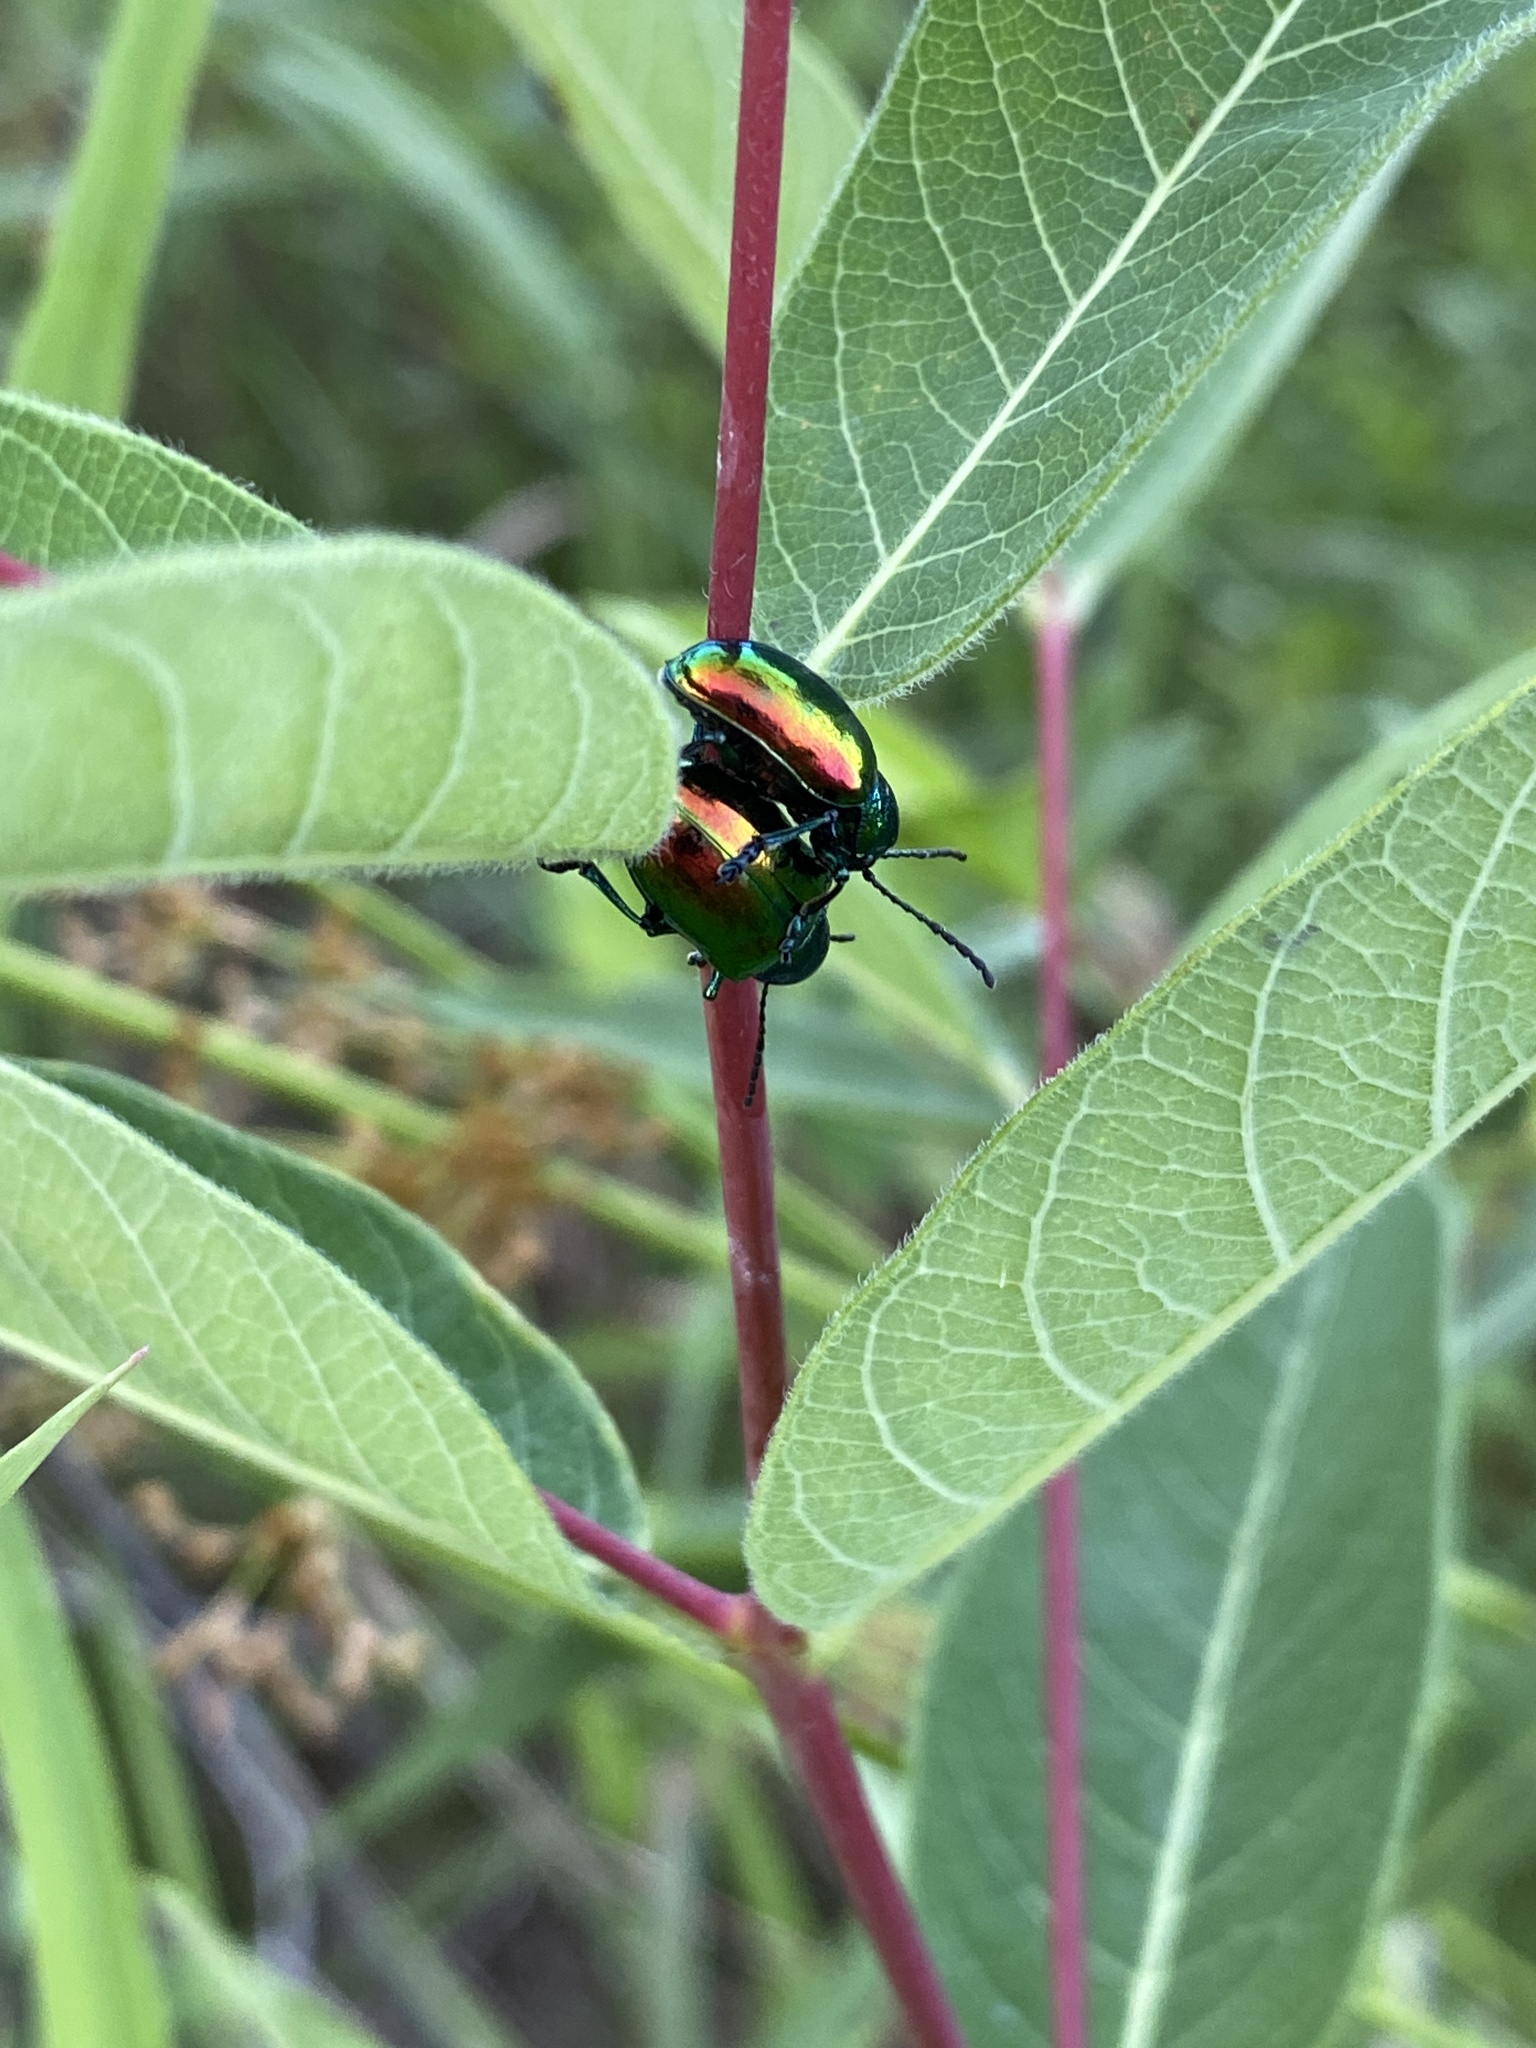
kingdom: Animalia
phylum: Arthropoda
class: Insecta
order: Coleoptera
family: Chrysomelidae
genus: Chrysochus
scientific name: Chrysochus auratus
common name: Dogbane leaf beetle
